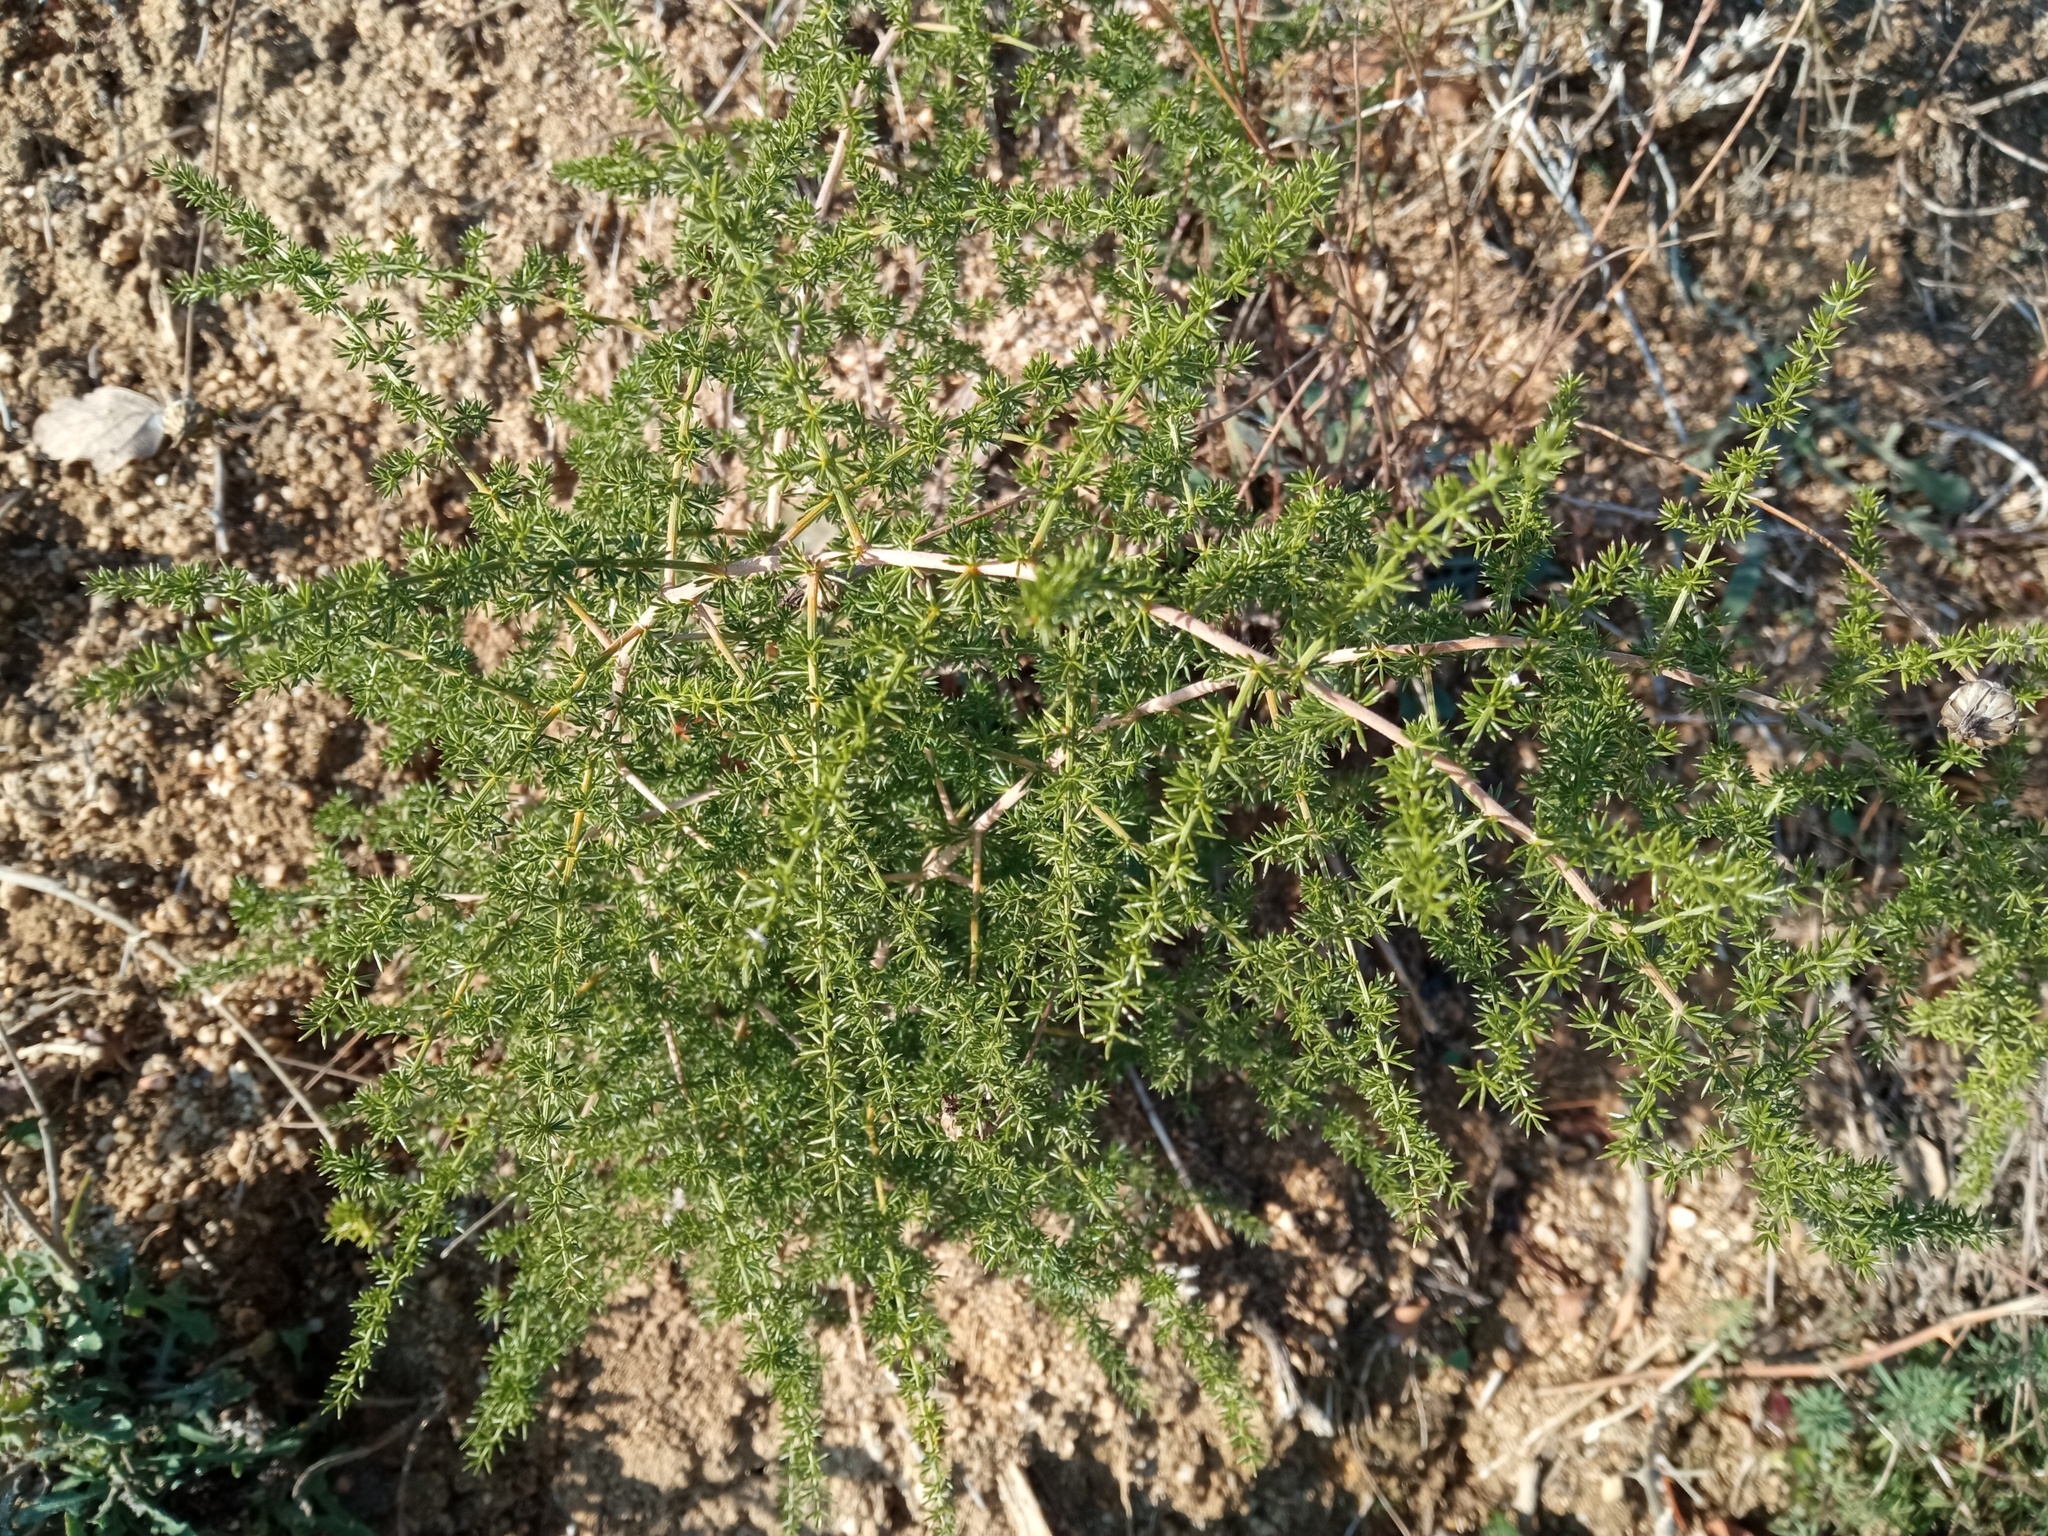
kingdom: Plantae
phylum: Tracheophyta
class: Liliopsida
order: Asparagales
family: Asparagaceae
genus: Asparagus
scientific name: Asparagus acutifolius
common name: Wild asparagus
